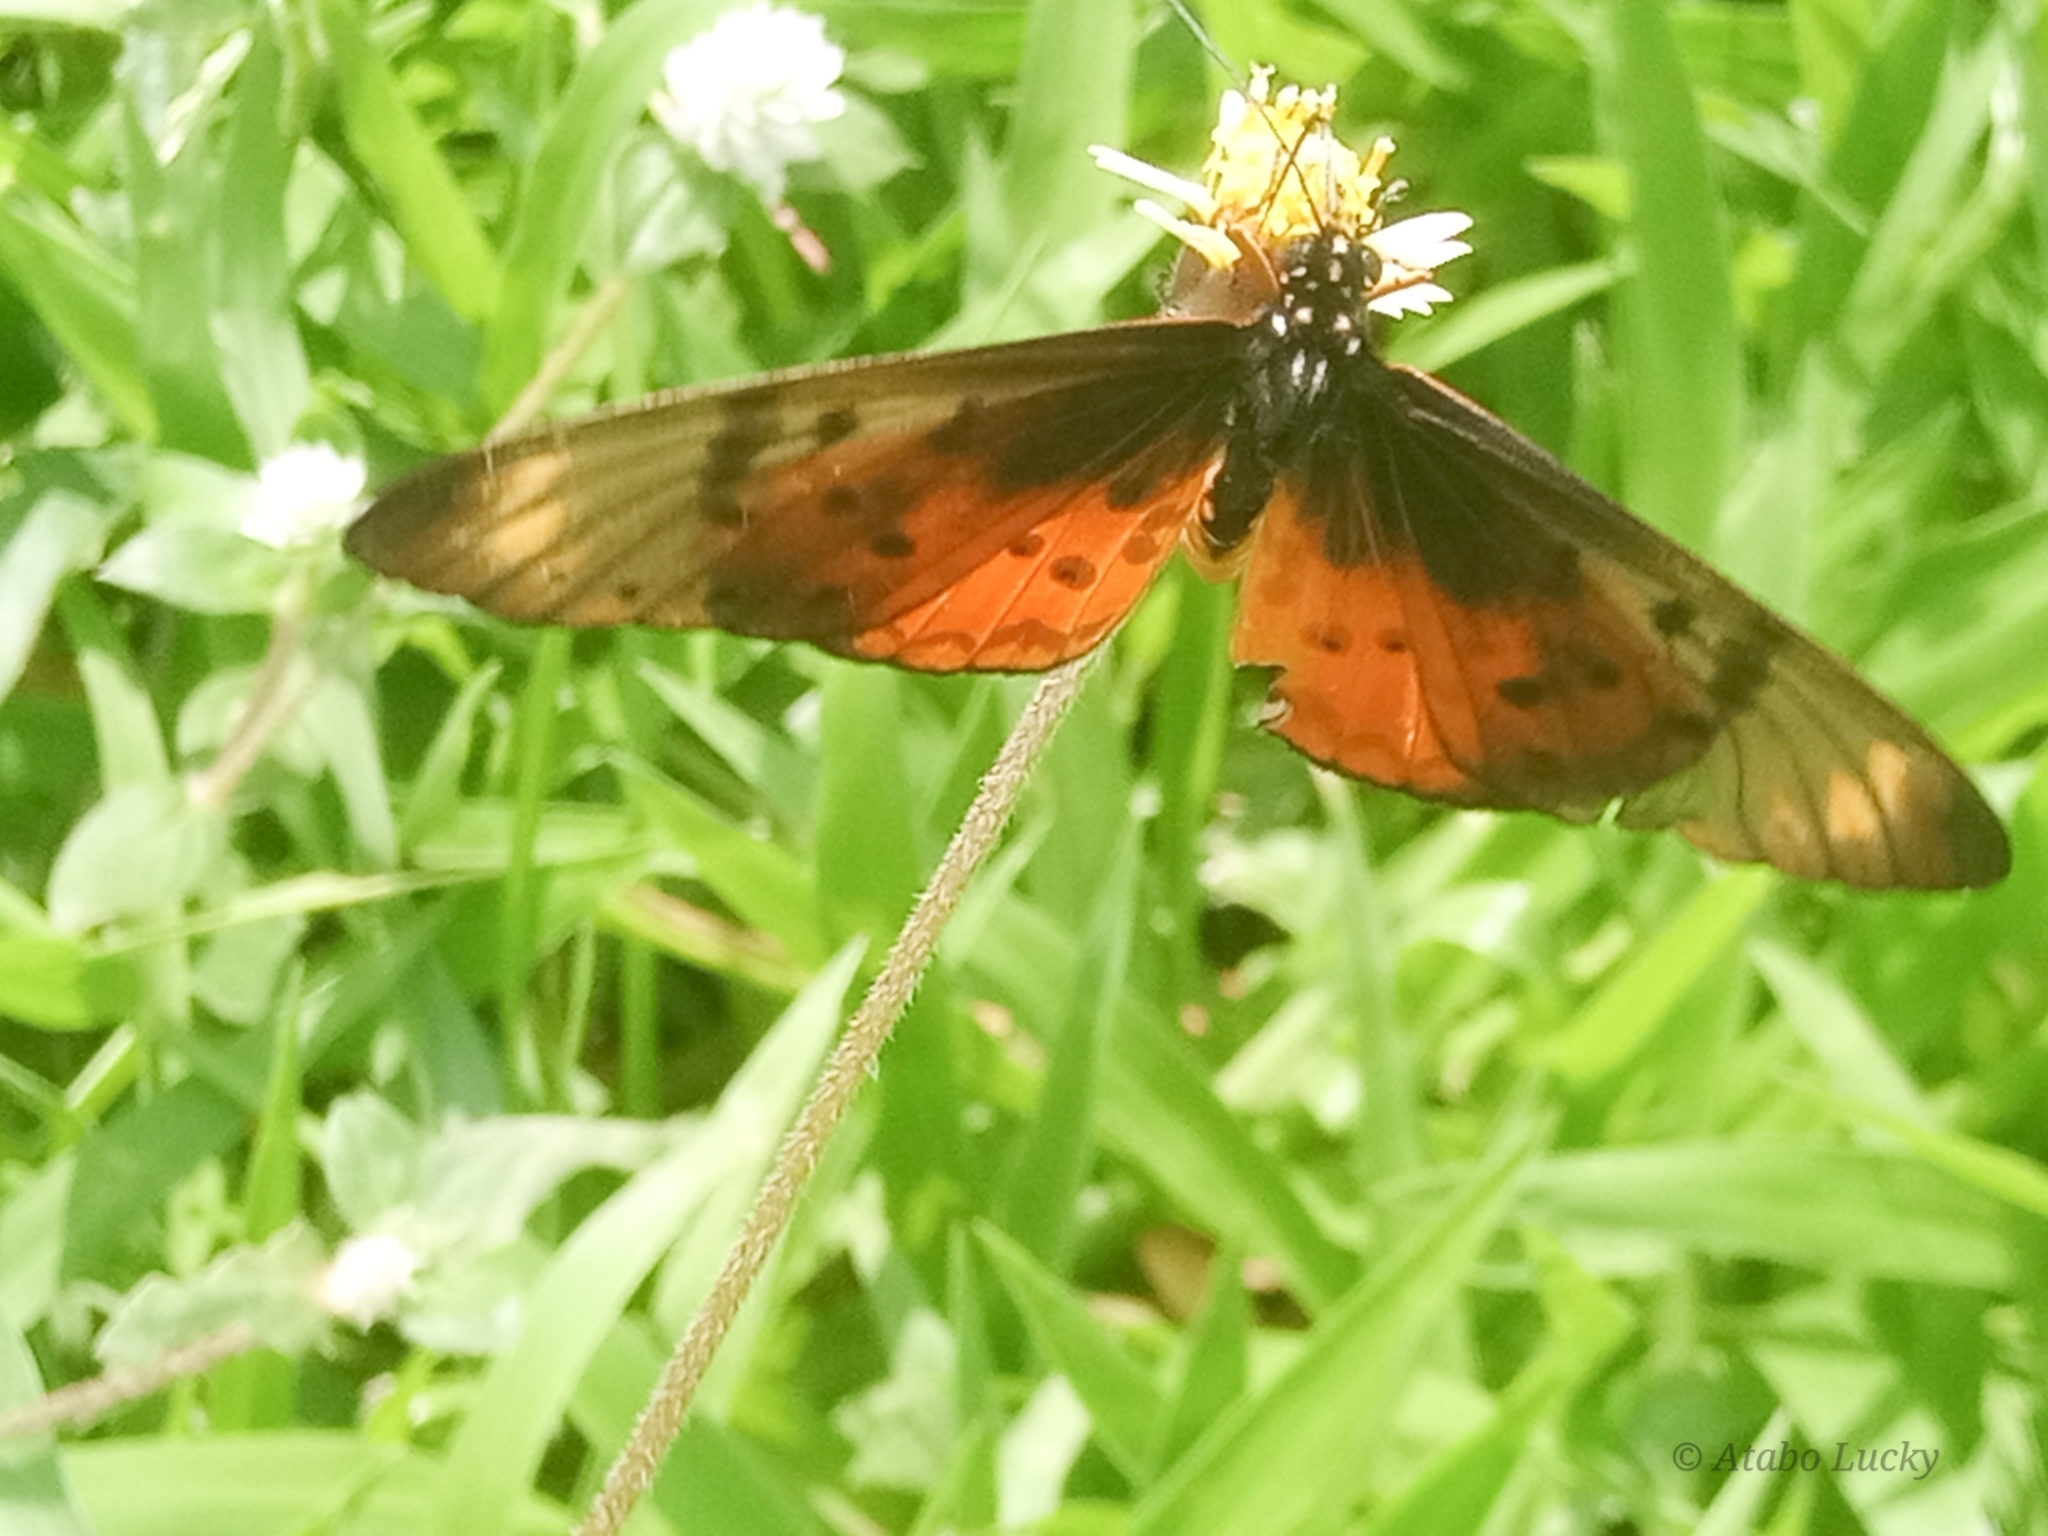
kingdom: Animalia
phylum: Arthropoda
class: Insecta
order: Lepidoptera
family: Nymphalidae
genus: Stephenia
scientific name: Stephenia
